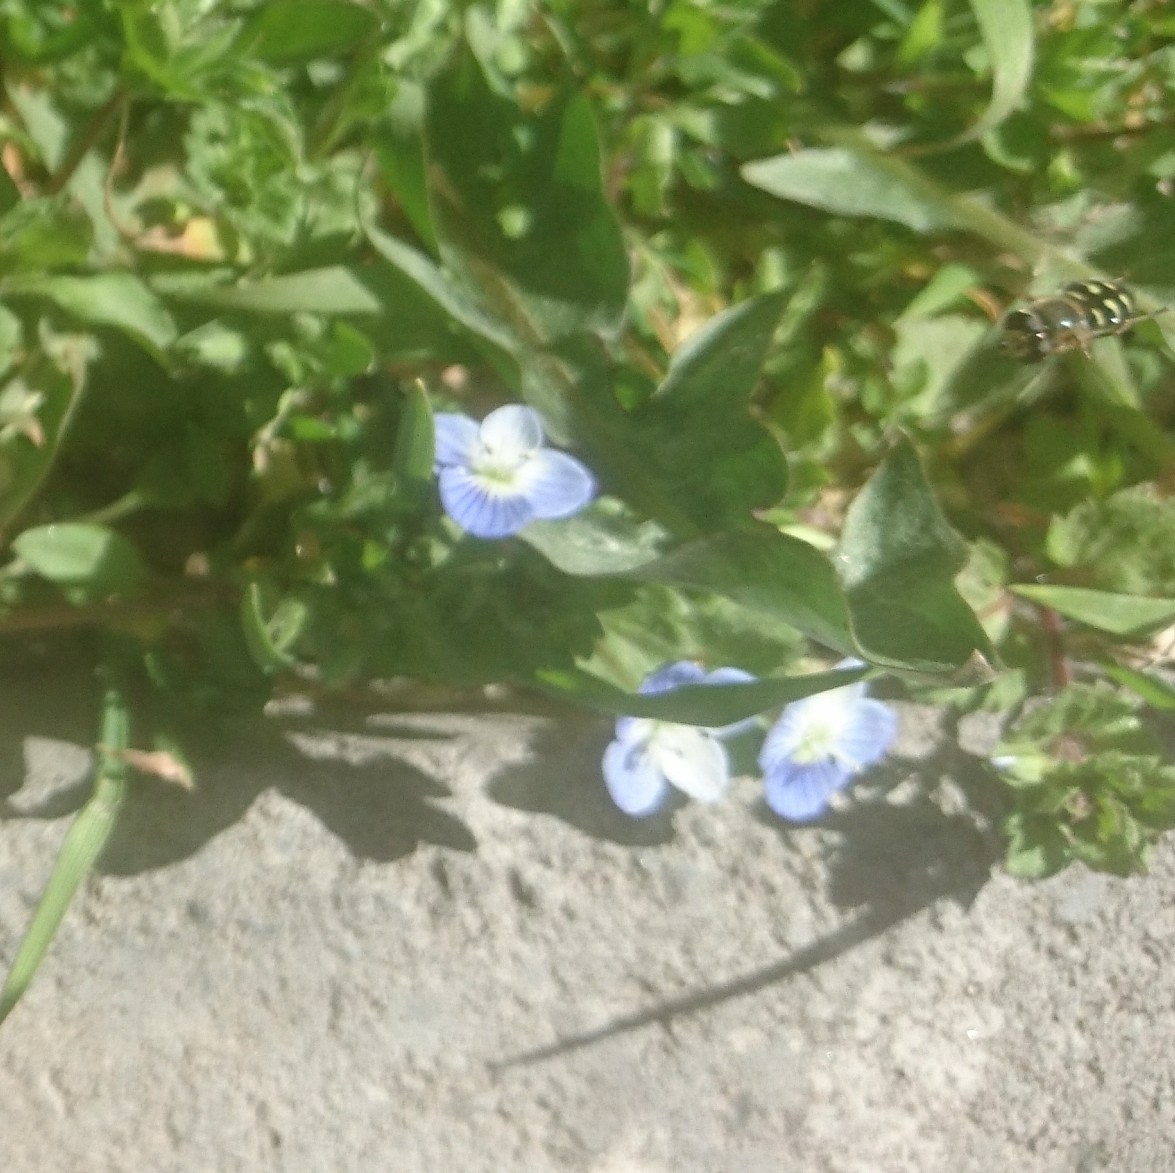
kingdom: Plantae
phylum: Tracheophyta
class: Magnoliopsida
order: Lamiales
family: Plantaginaceae
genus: Veronica
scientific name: Veronica persica
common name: Common field-speedwell
